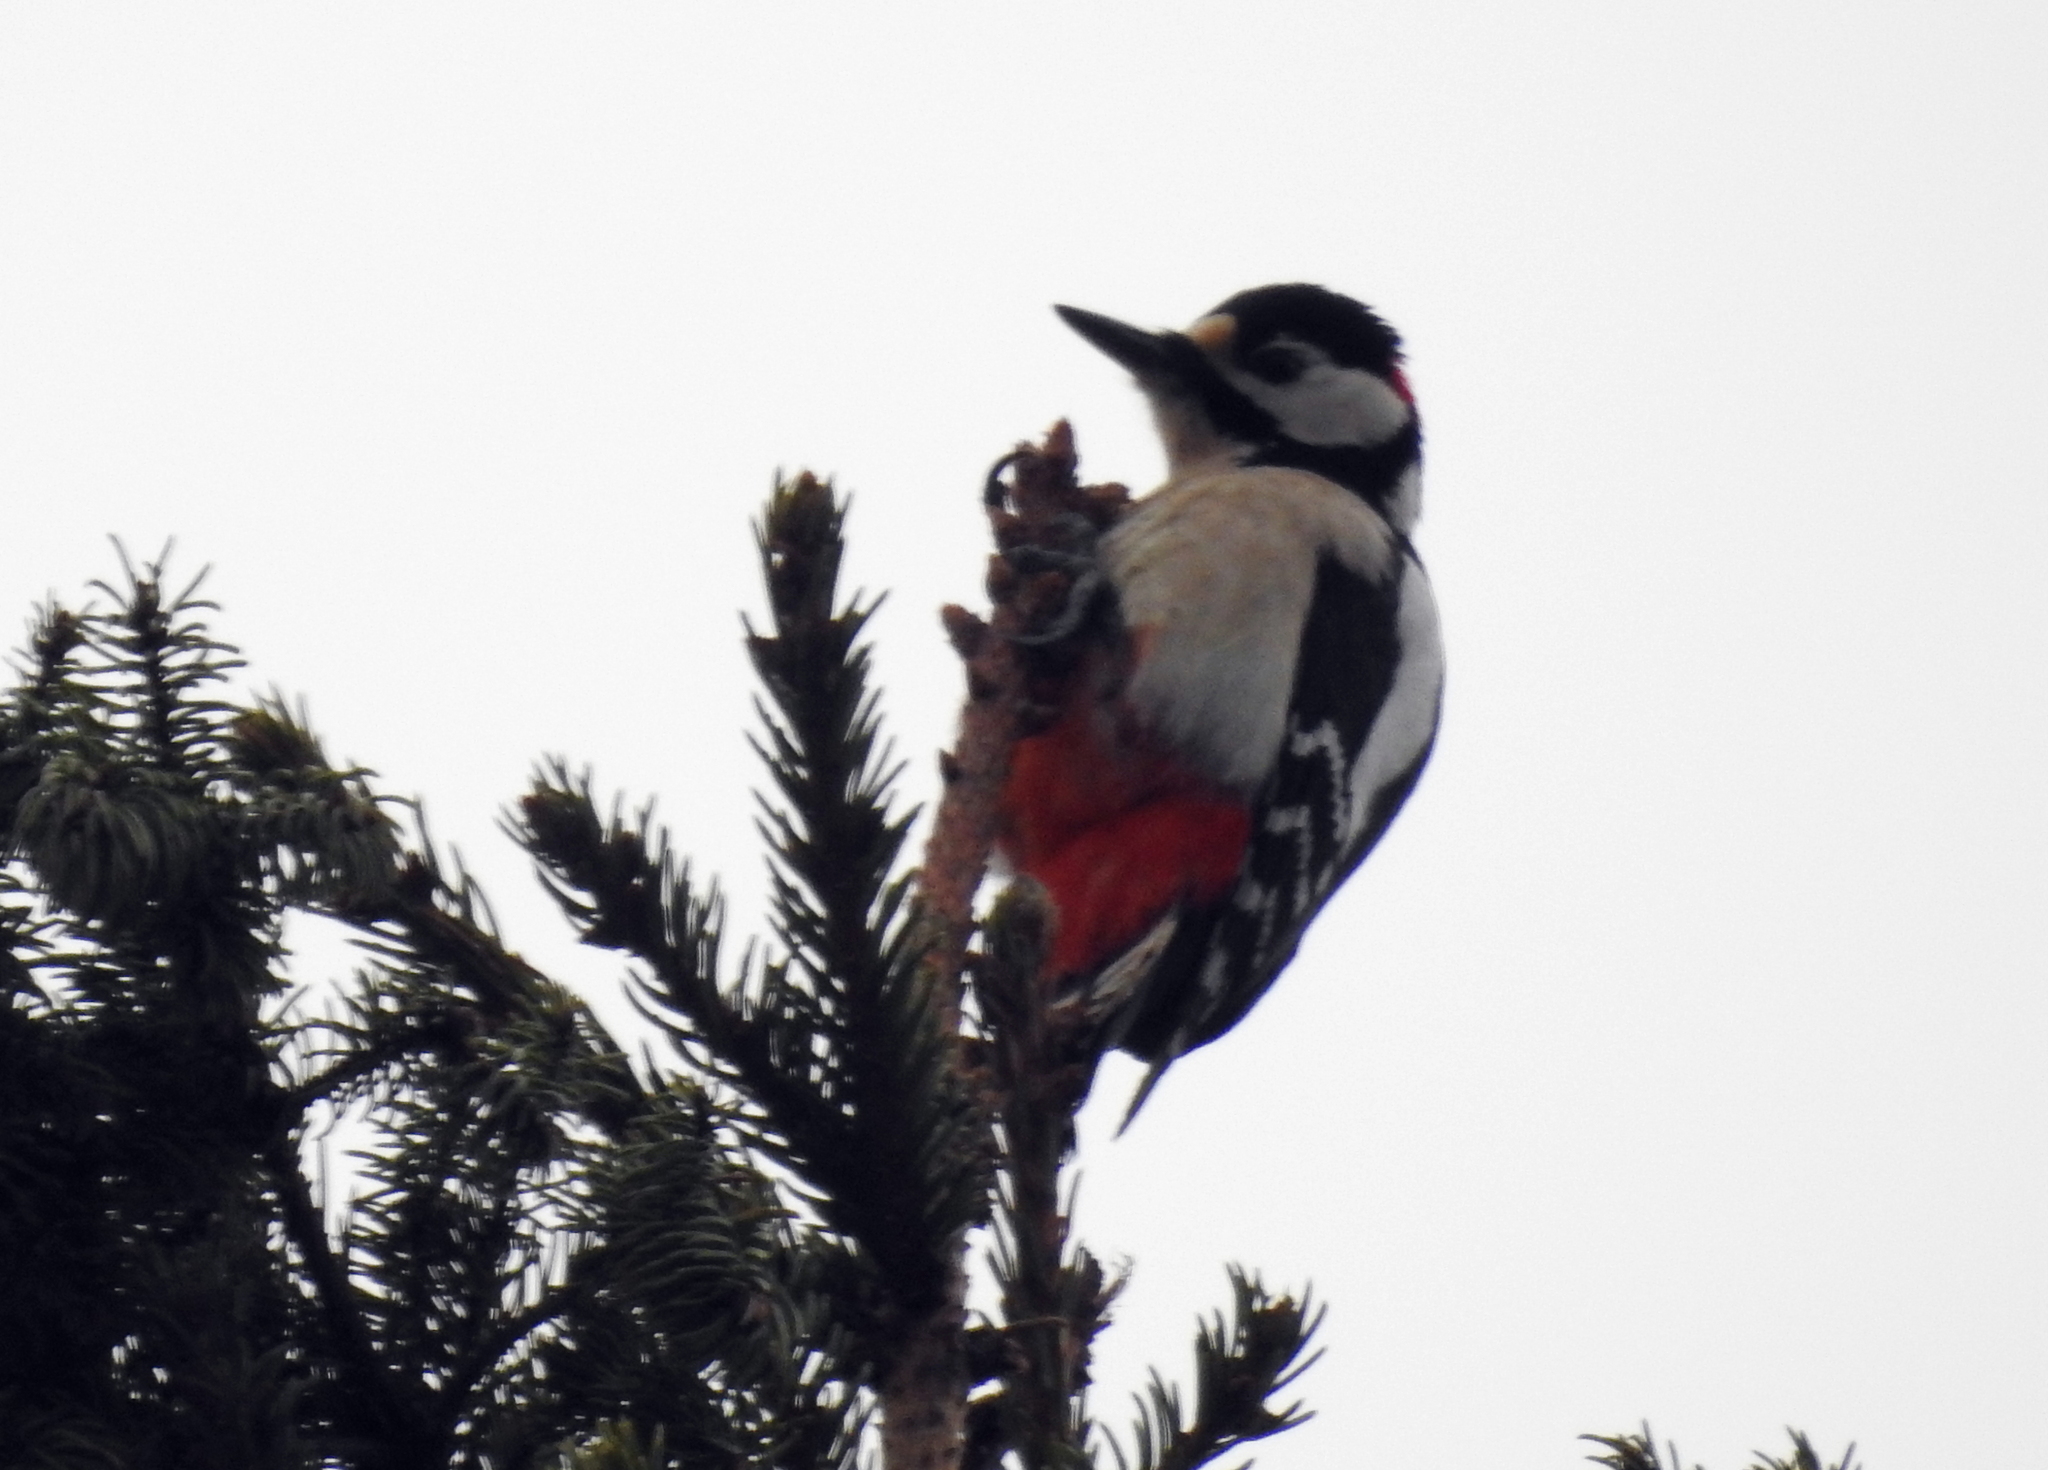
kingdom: Animalia
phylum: Chordata
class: Aves
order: Piciformes
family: Picidae
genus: Dendrocopos
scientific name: Dendrocopos major
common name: Great spotted woodpecker
